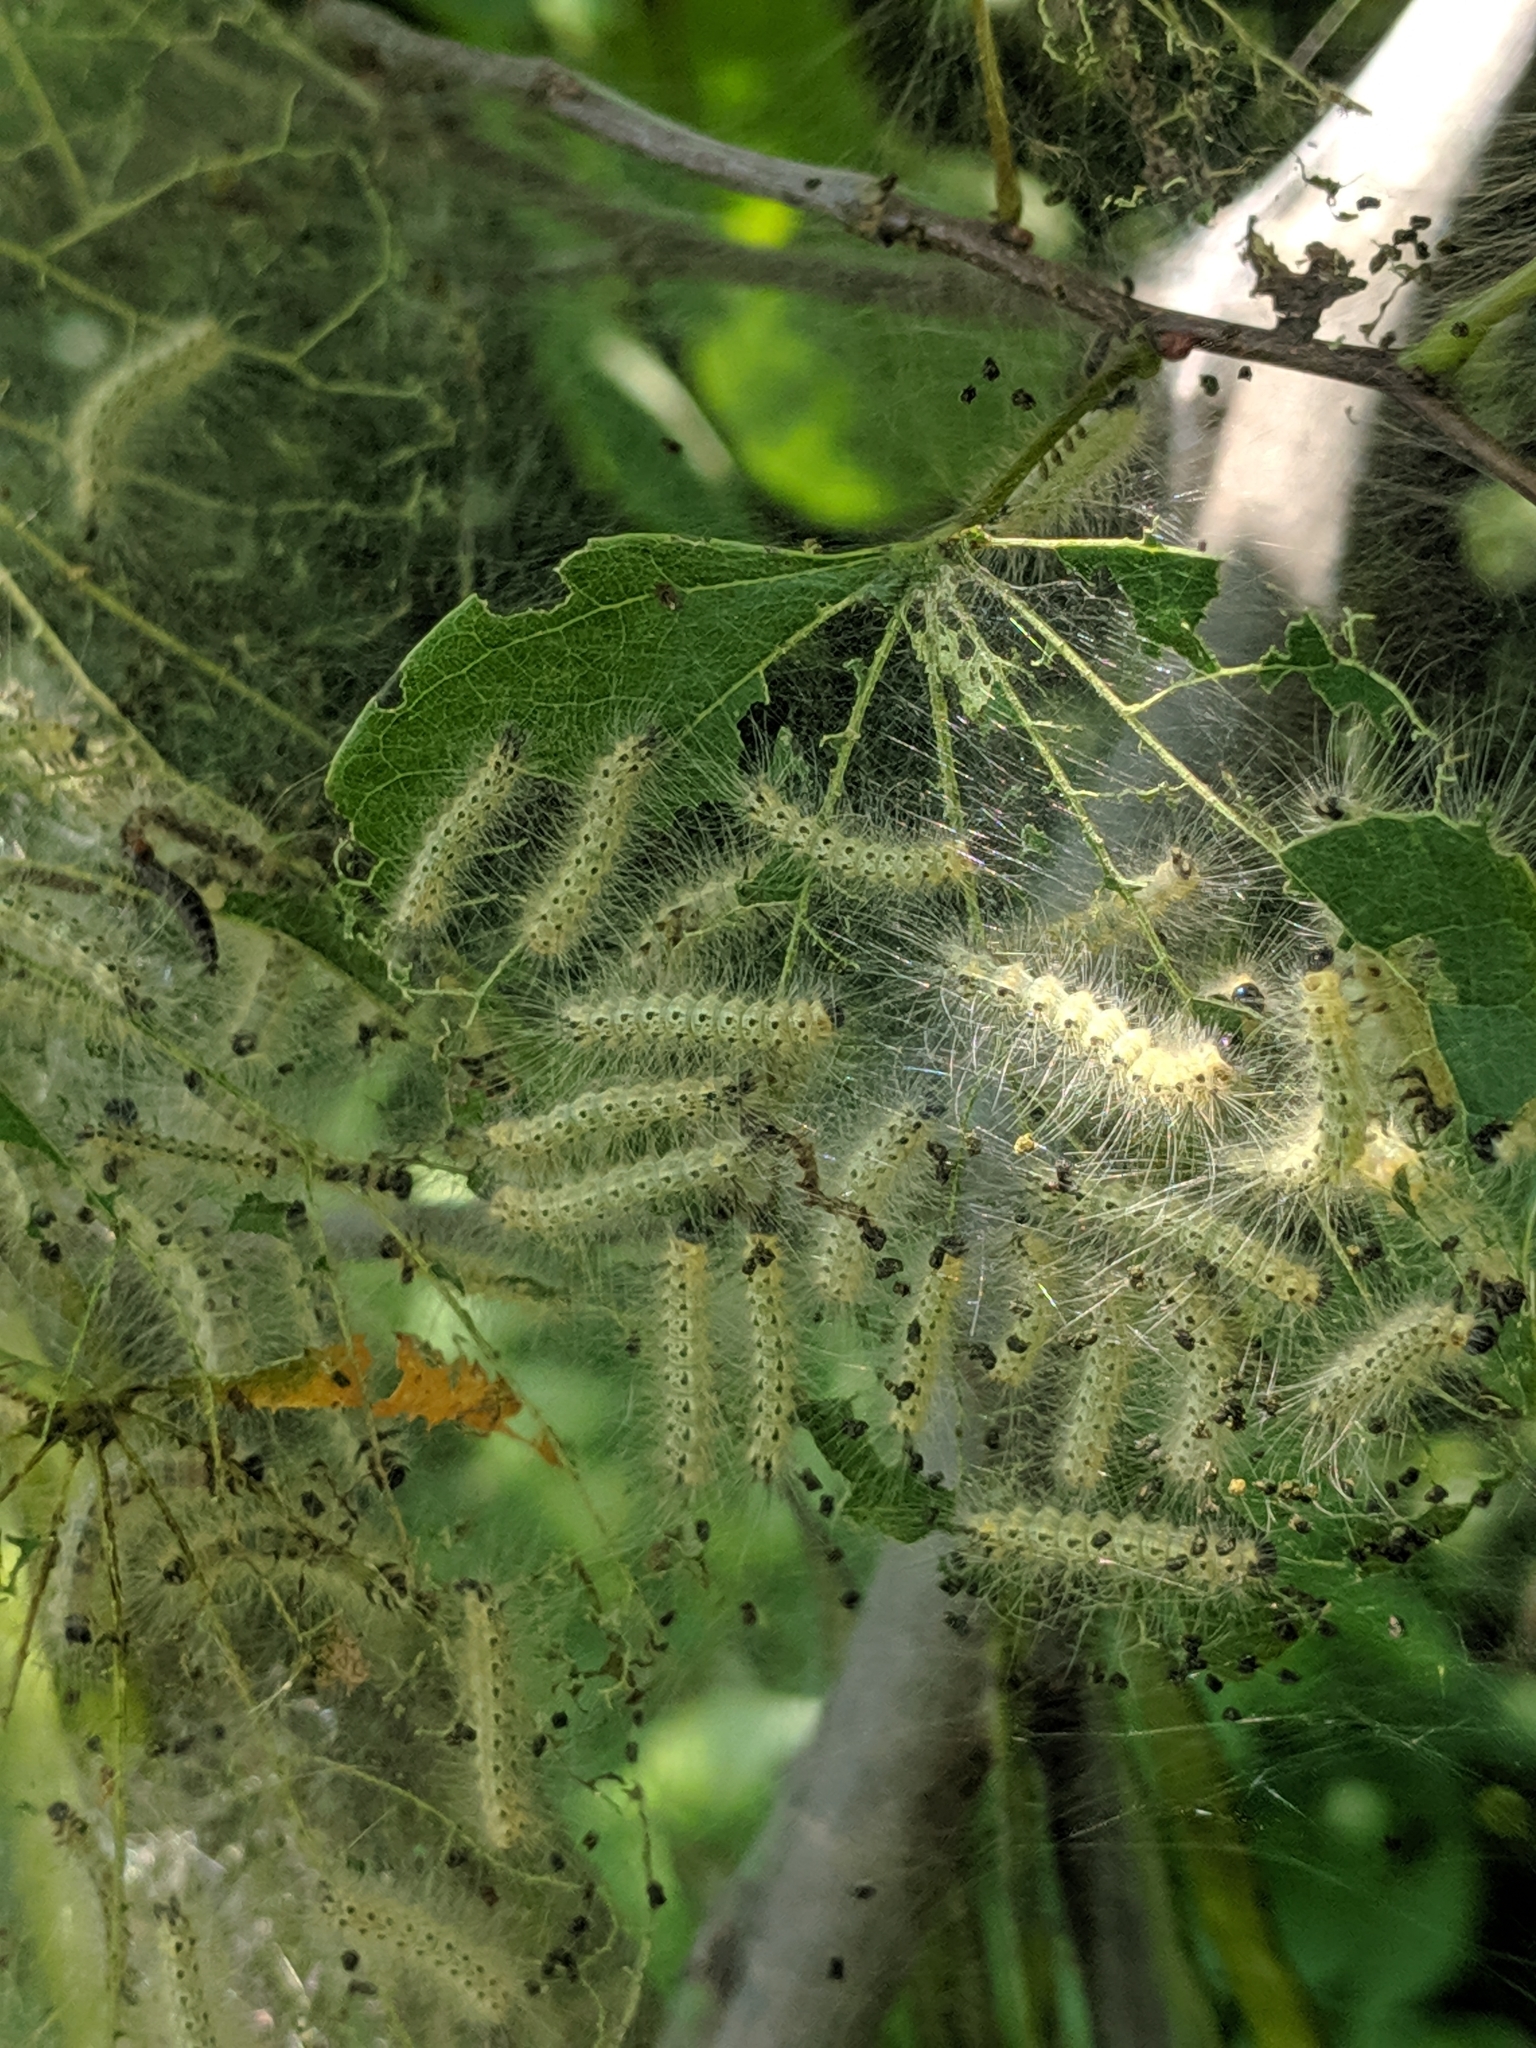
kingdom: Animalia
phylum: Arthropoda
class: Insecta
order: Lepidoptera
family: Erebidae
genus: Hyphantria
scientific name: Hyphantria cunea
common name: American white moth
